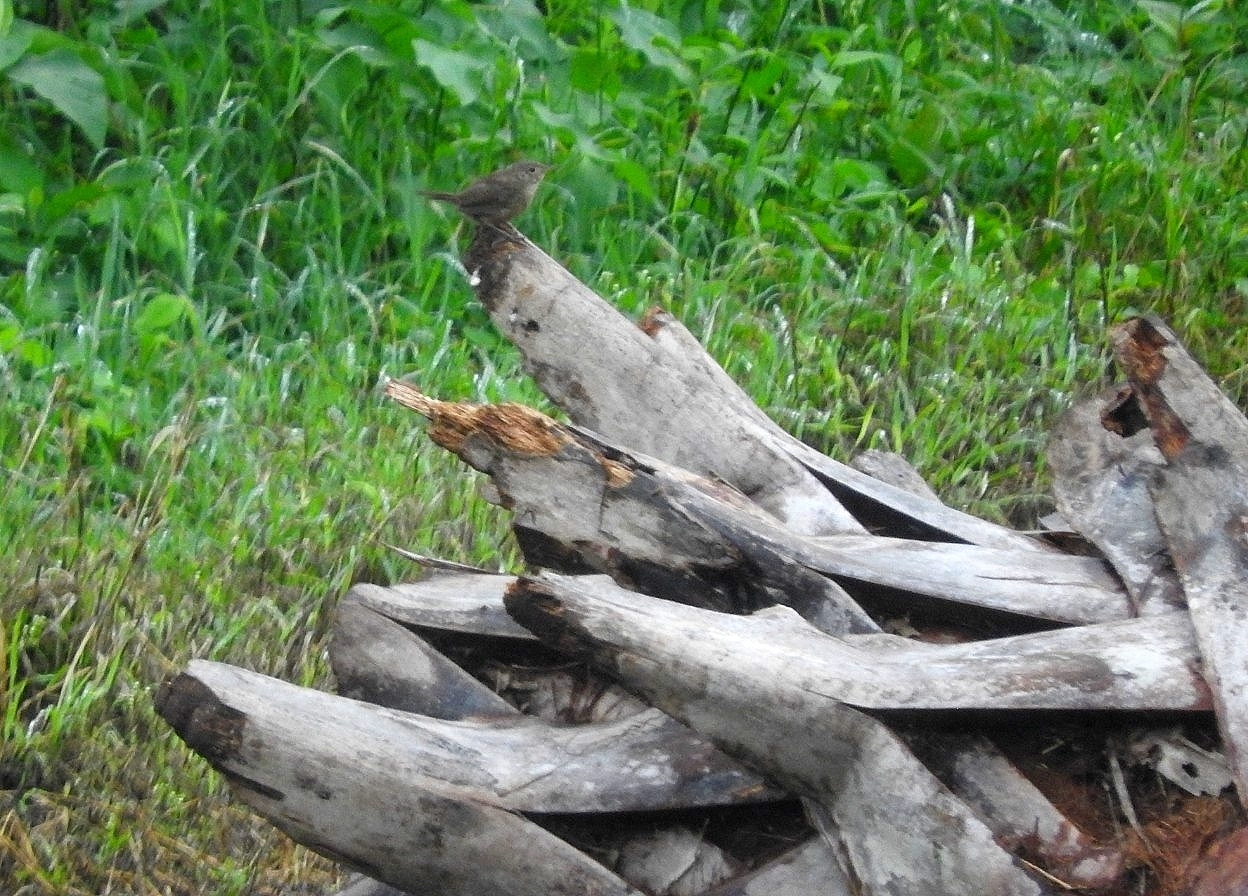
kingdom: Animalia
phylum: Chordata
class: Aves
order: Passeriformes
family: Troglodytidae
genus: Troglodytes
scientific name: Troglodytes aedon
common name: House wren
